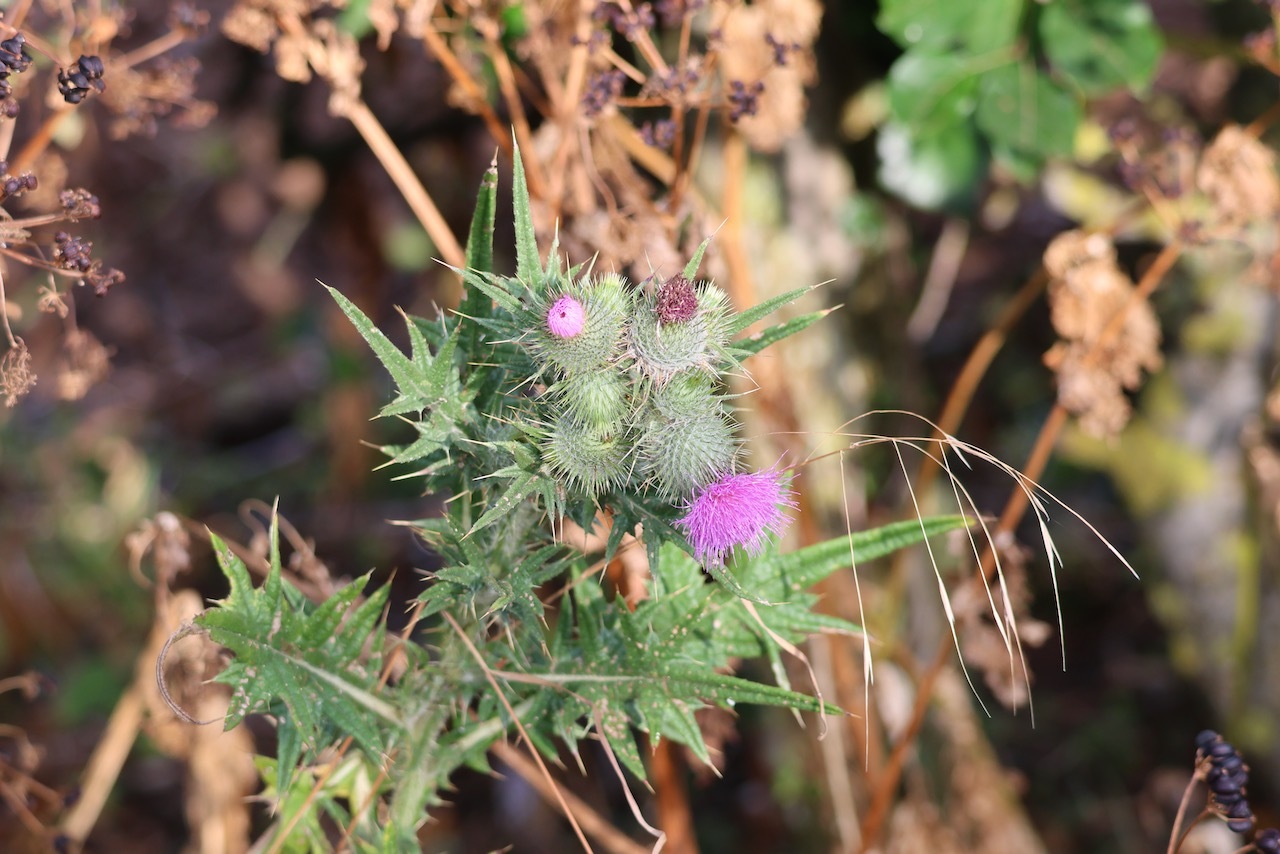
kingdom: Plantae
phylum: Tracheophyta
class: Magnoliopsida
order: Asterales
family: Asteraceae
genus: Cirsium
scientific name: Cirsium vulgare
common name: Bull thistle
